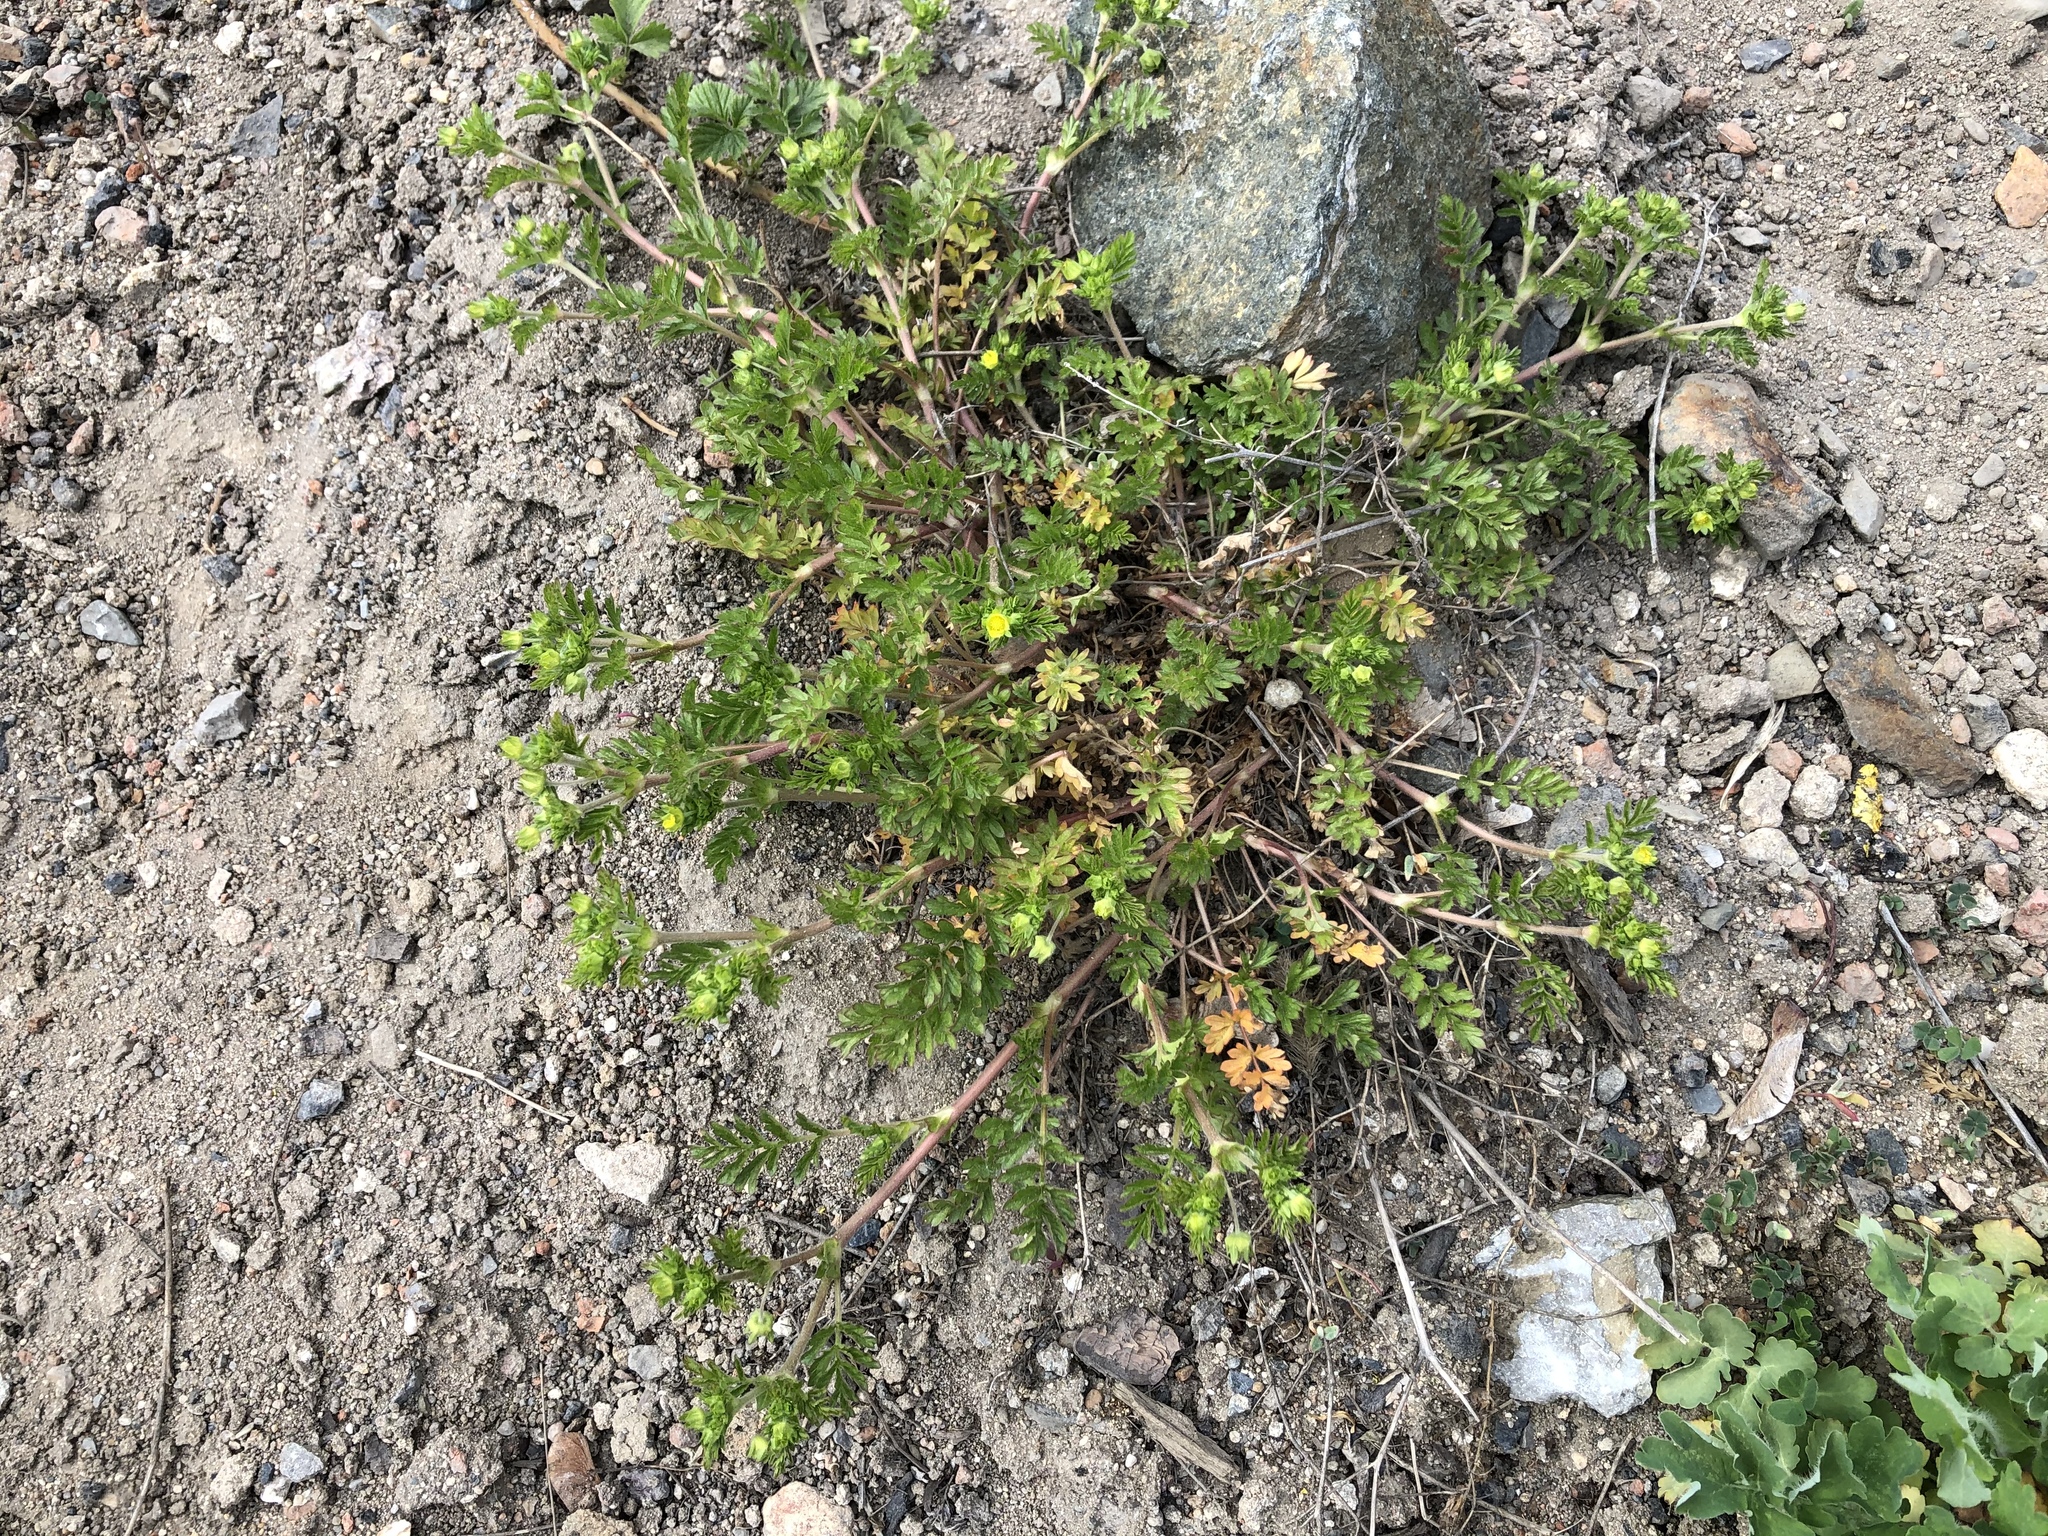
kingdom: Plantae
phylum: Tracheophyta
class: Magnoliopsida
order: Rosales
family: Rosaceae
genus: Potentilla
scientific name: Potentilla supina
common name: Prostrate cinquefoil
